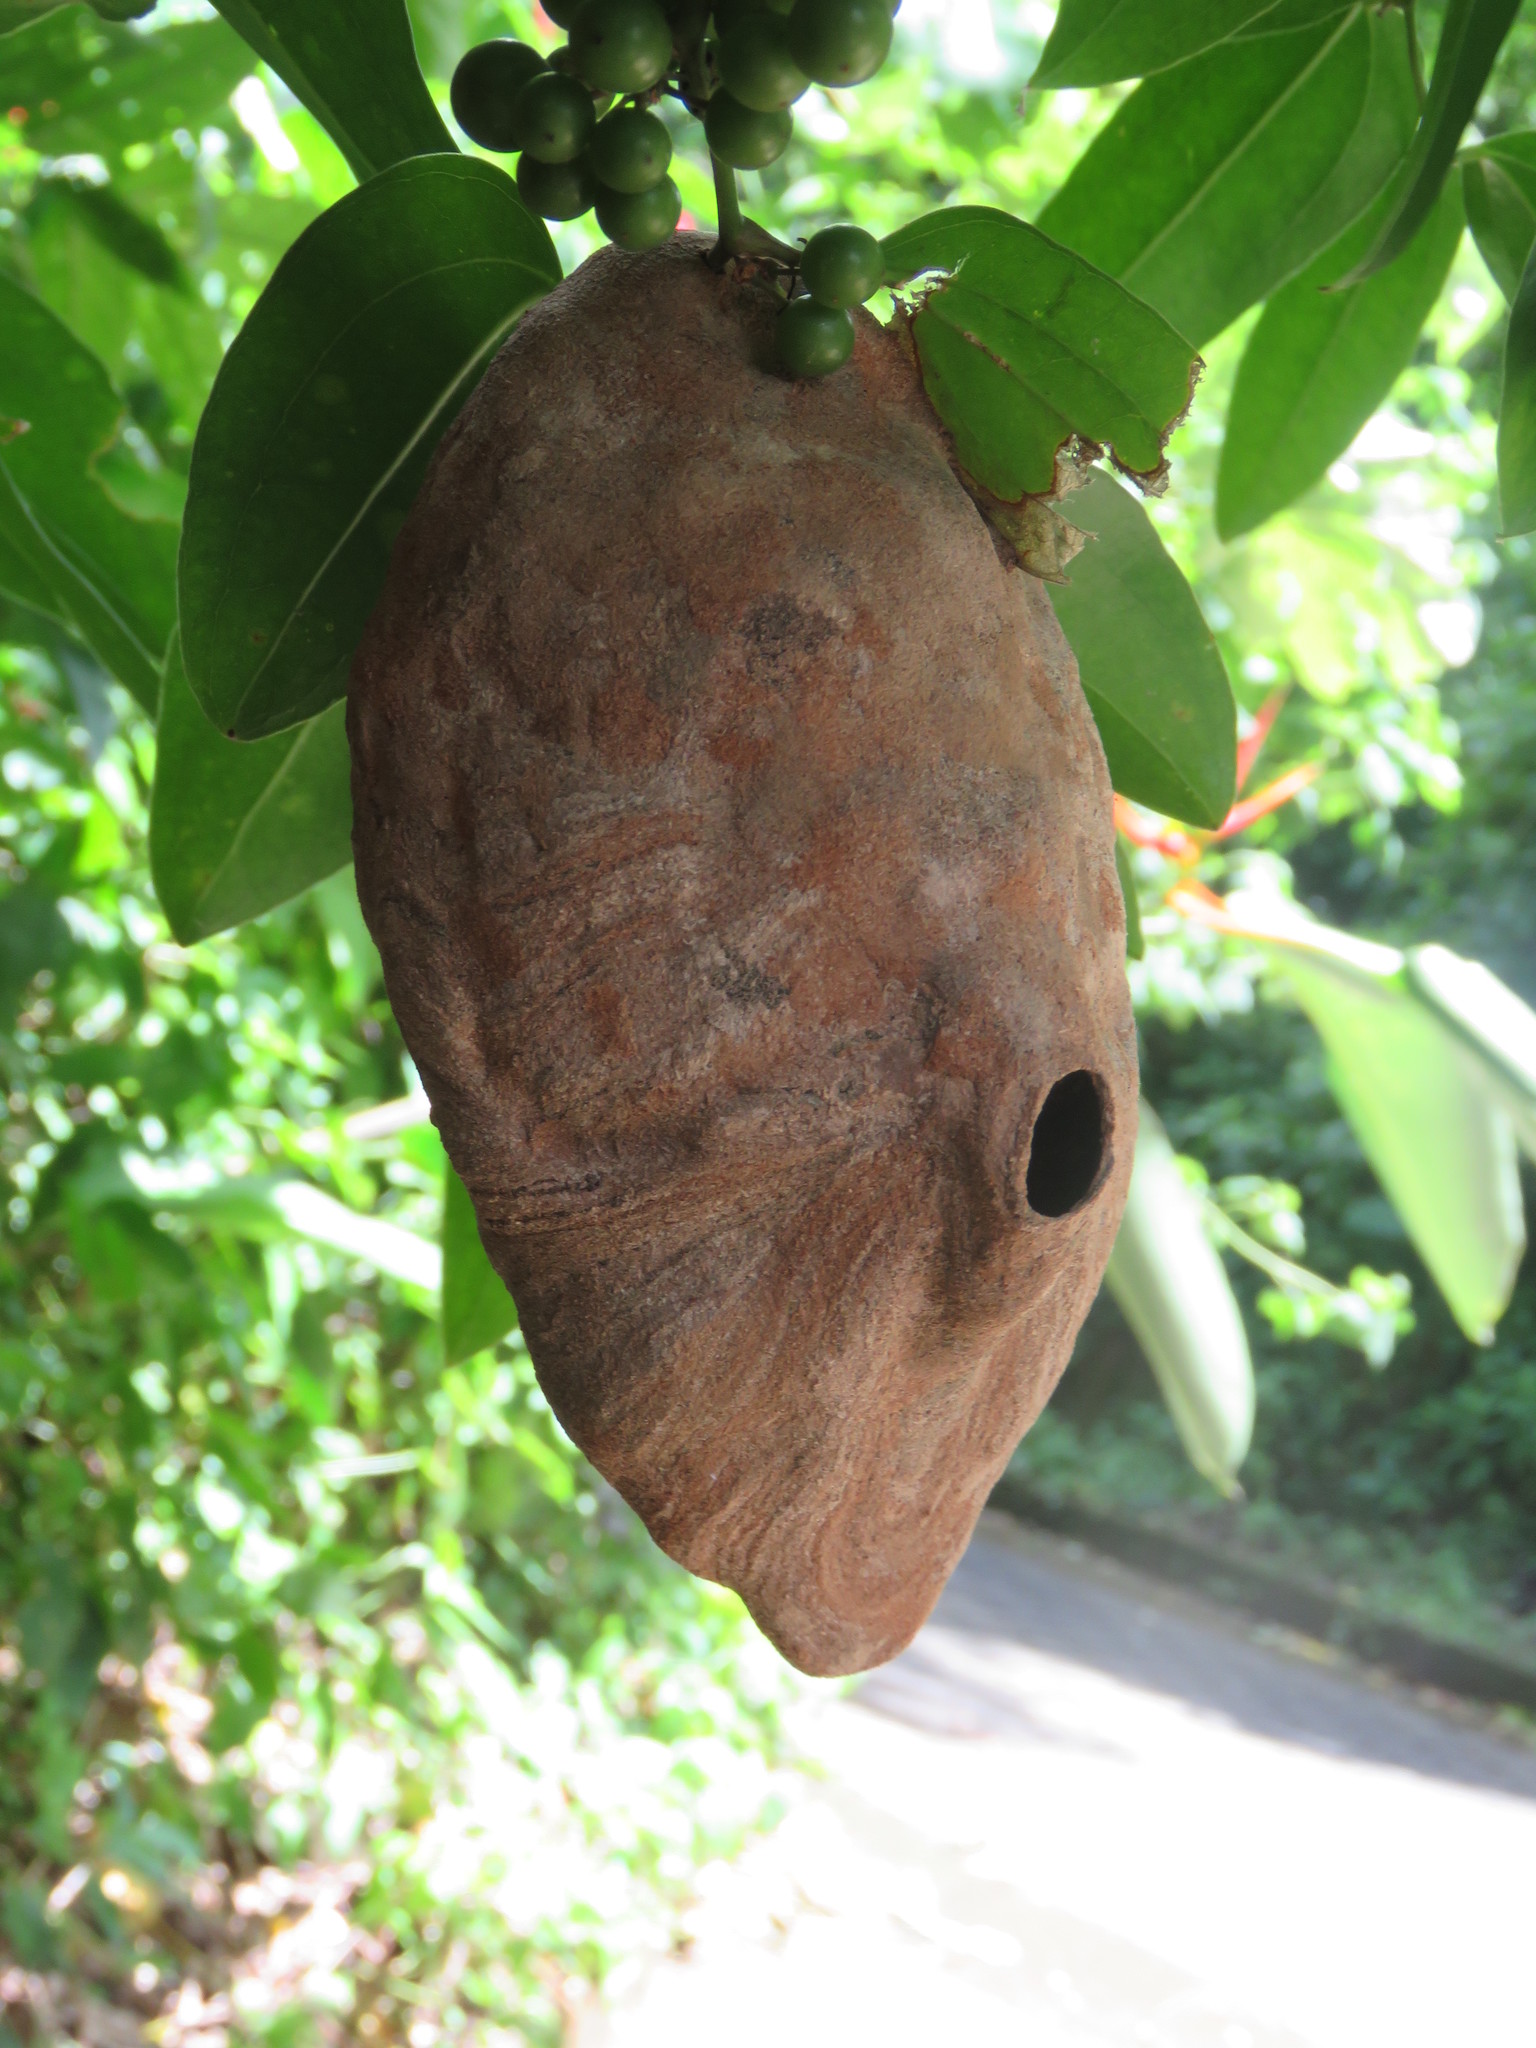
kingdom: Animalia
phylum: Arthropoda
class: Insecta
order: Hymenoptera
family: Eumenidae
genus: Polybia
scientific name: Polybia emaciata
